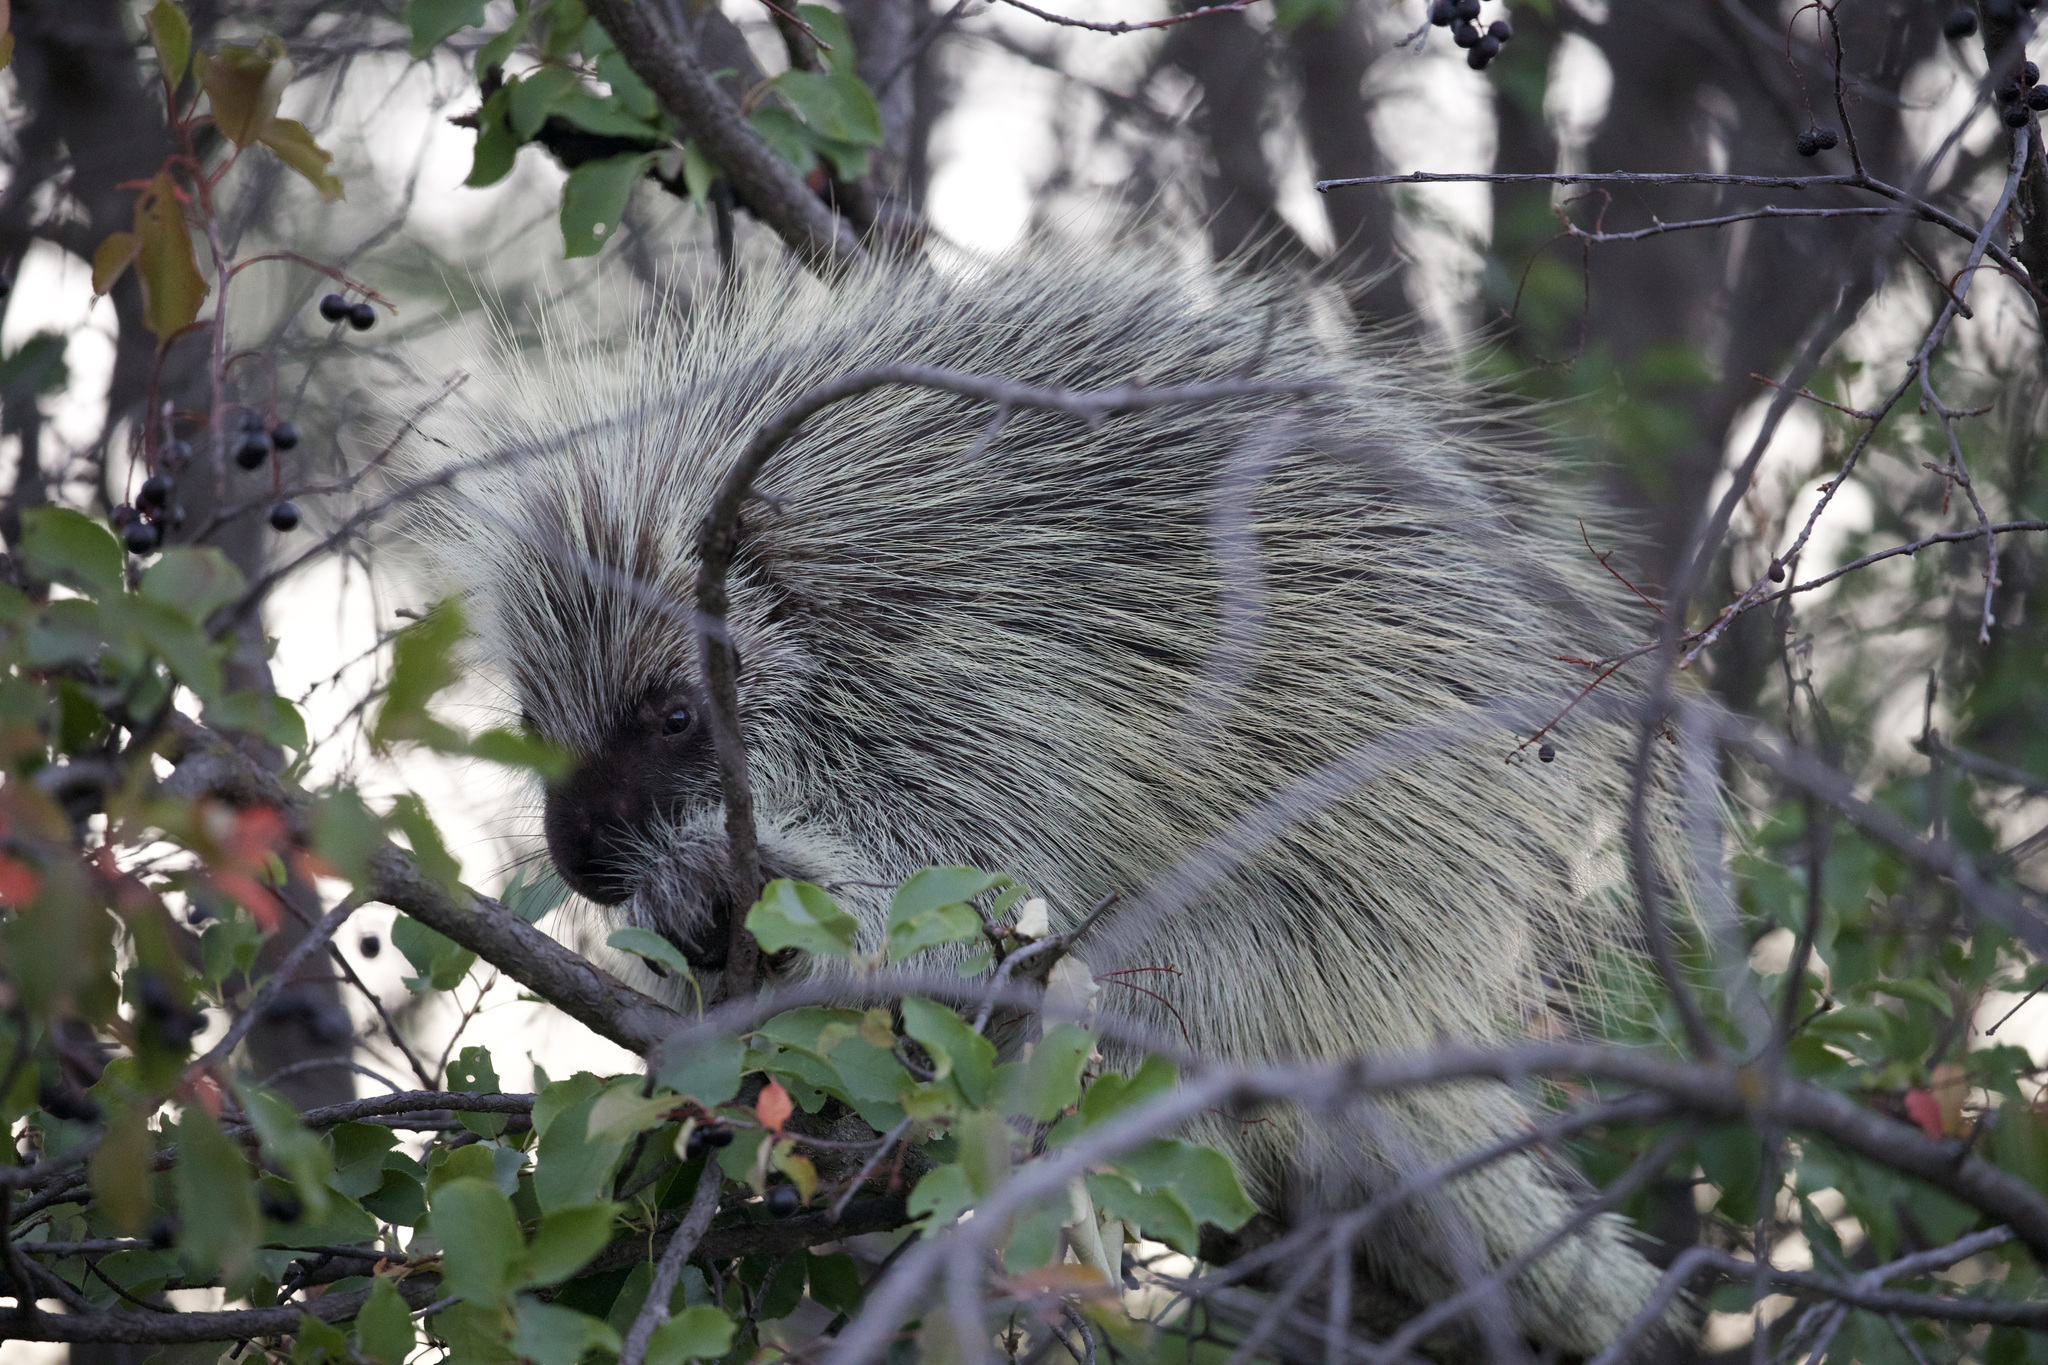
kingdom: Animalia
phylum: Chordata
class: Mammalia
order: Rodentia
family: Erethizontidae
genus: Erethizon
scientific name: Erethizon dorsatus
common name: North american porcupine
